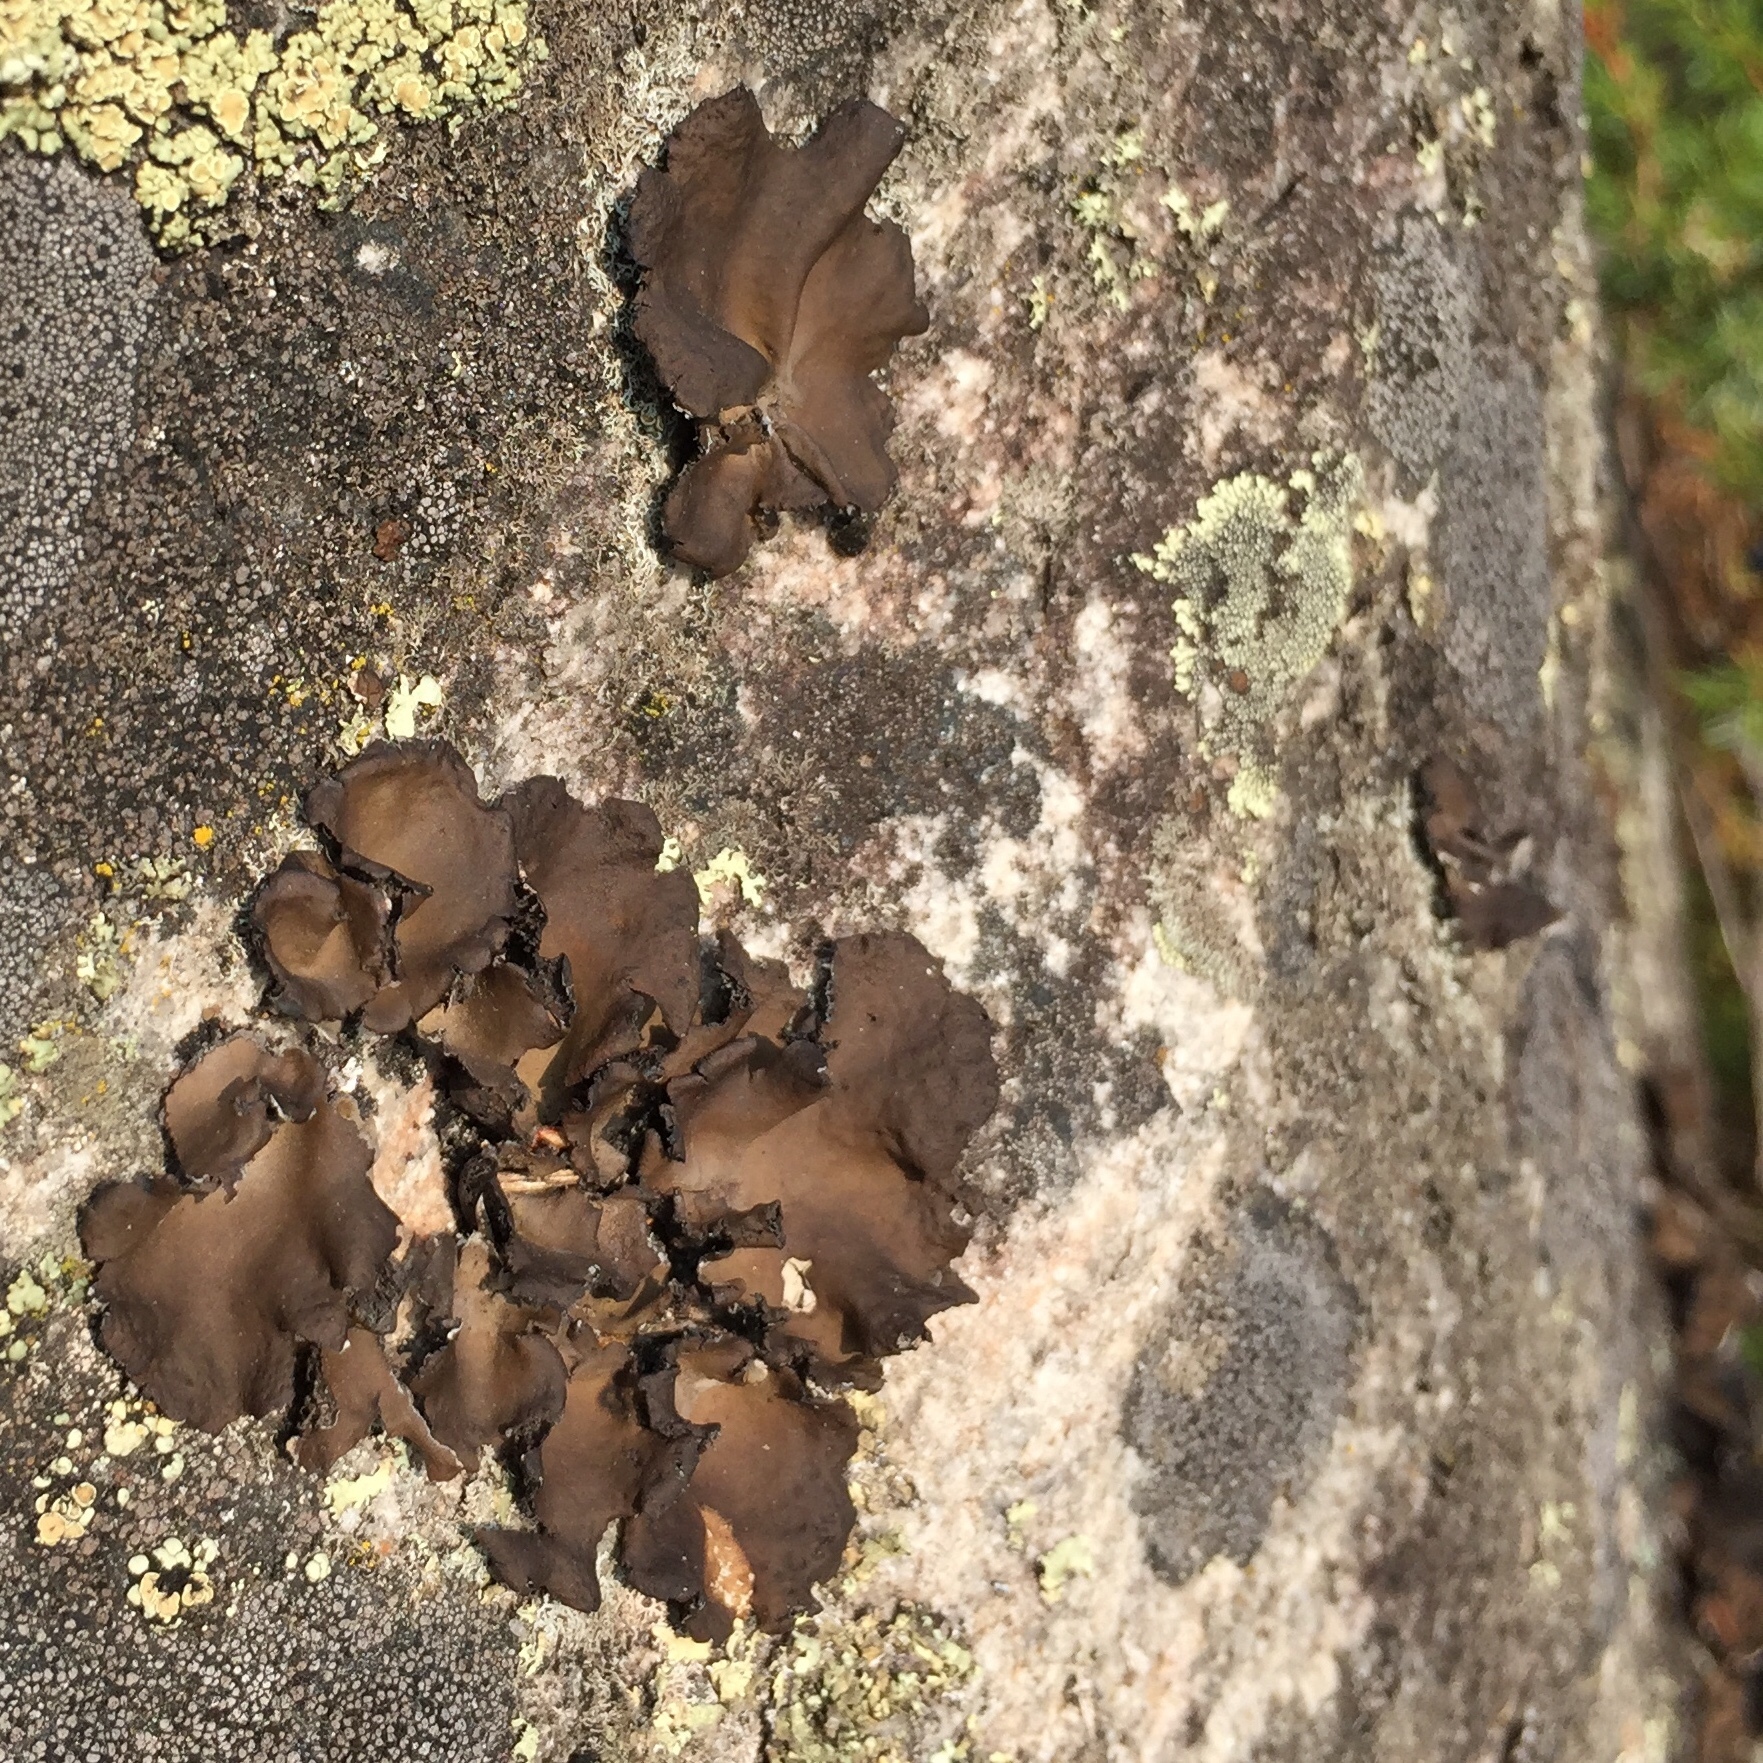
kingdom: Fungi
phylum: Ascomycota
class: Lecanoromycetes
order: Umbilicariales
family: Umbilicariaceae
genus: Umbilicaria
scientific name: Umbilicaria muhlenbergii
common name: Lesser rocktripe
